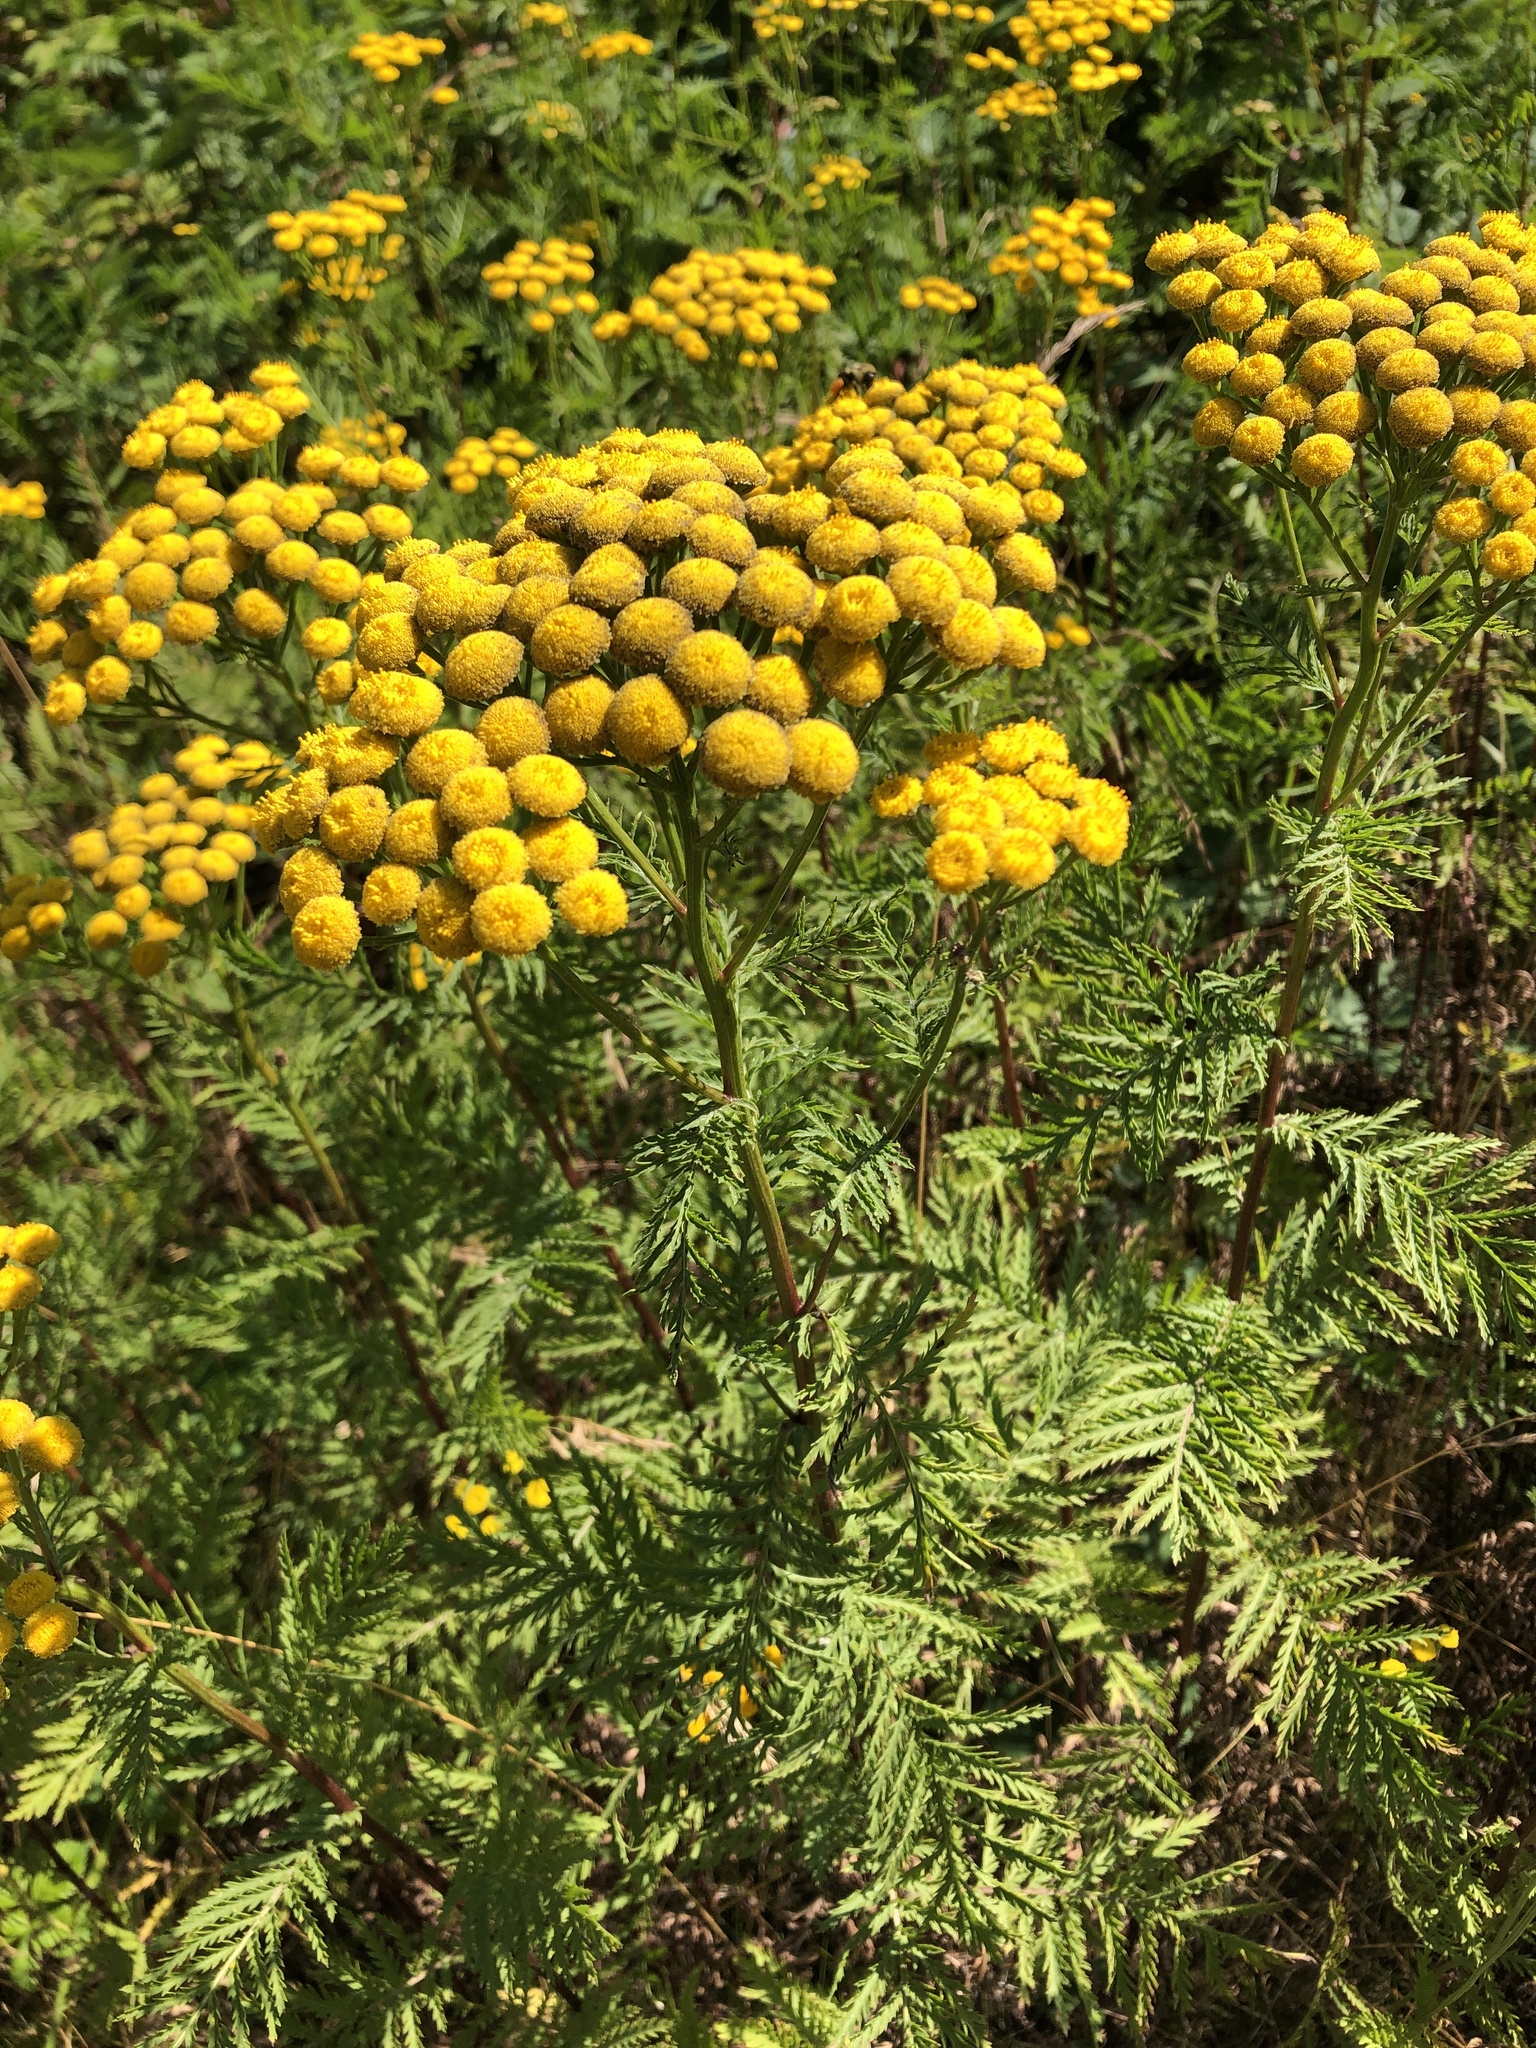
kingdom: Plantae
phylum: Tracheophyta
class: Magnoliopsida
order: Asterales
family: Asteraceae
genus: Tanacetum
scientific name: Tanacetum vulgare
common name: Common tansy
